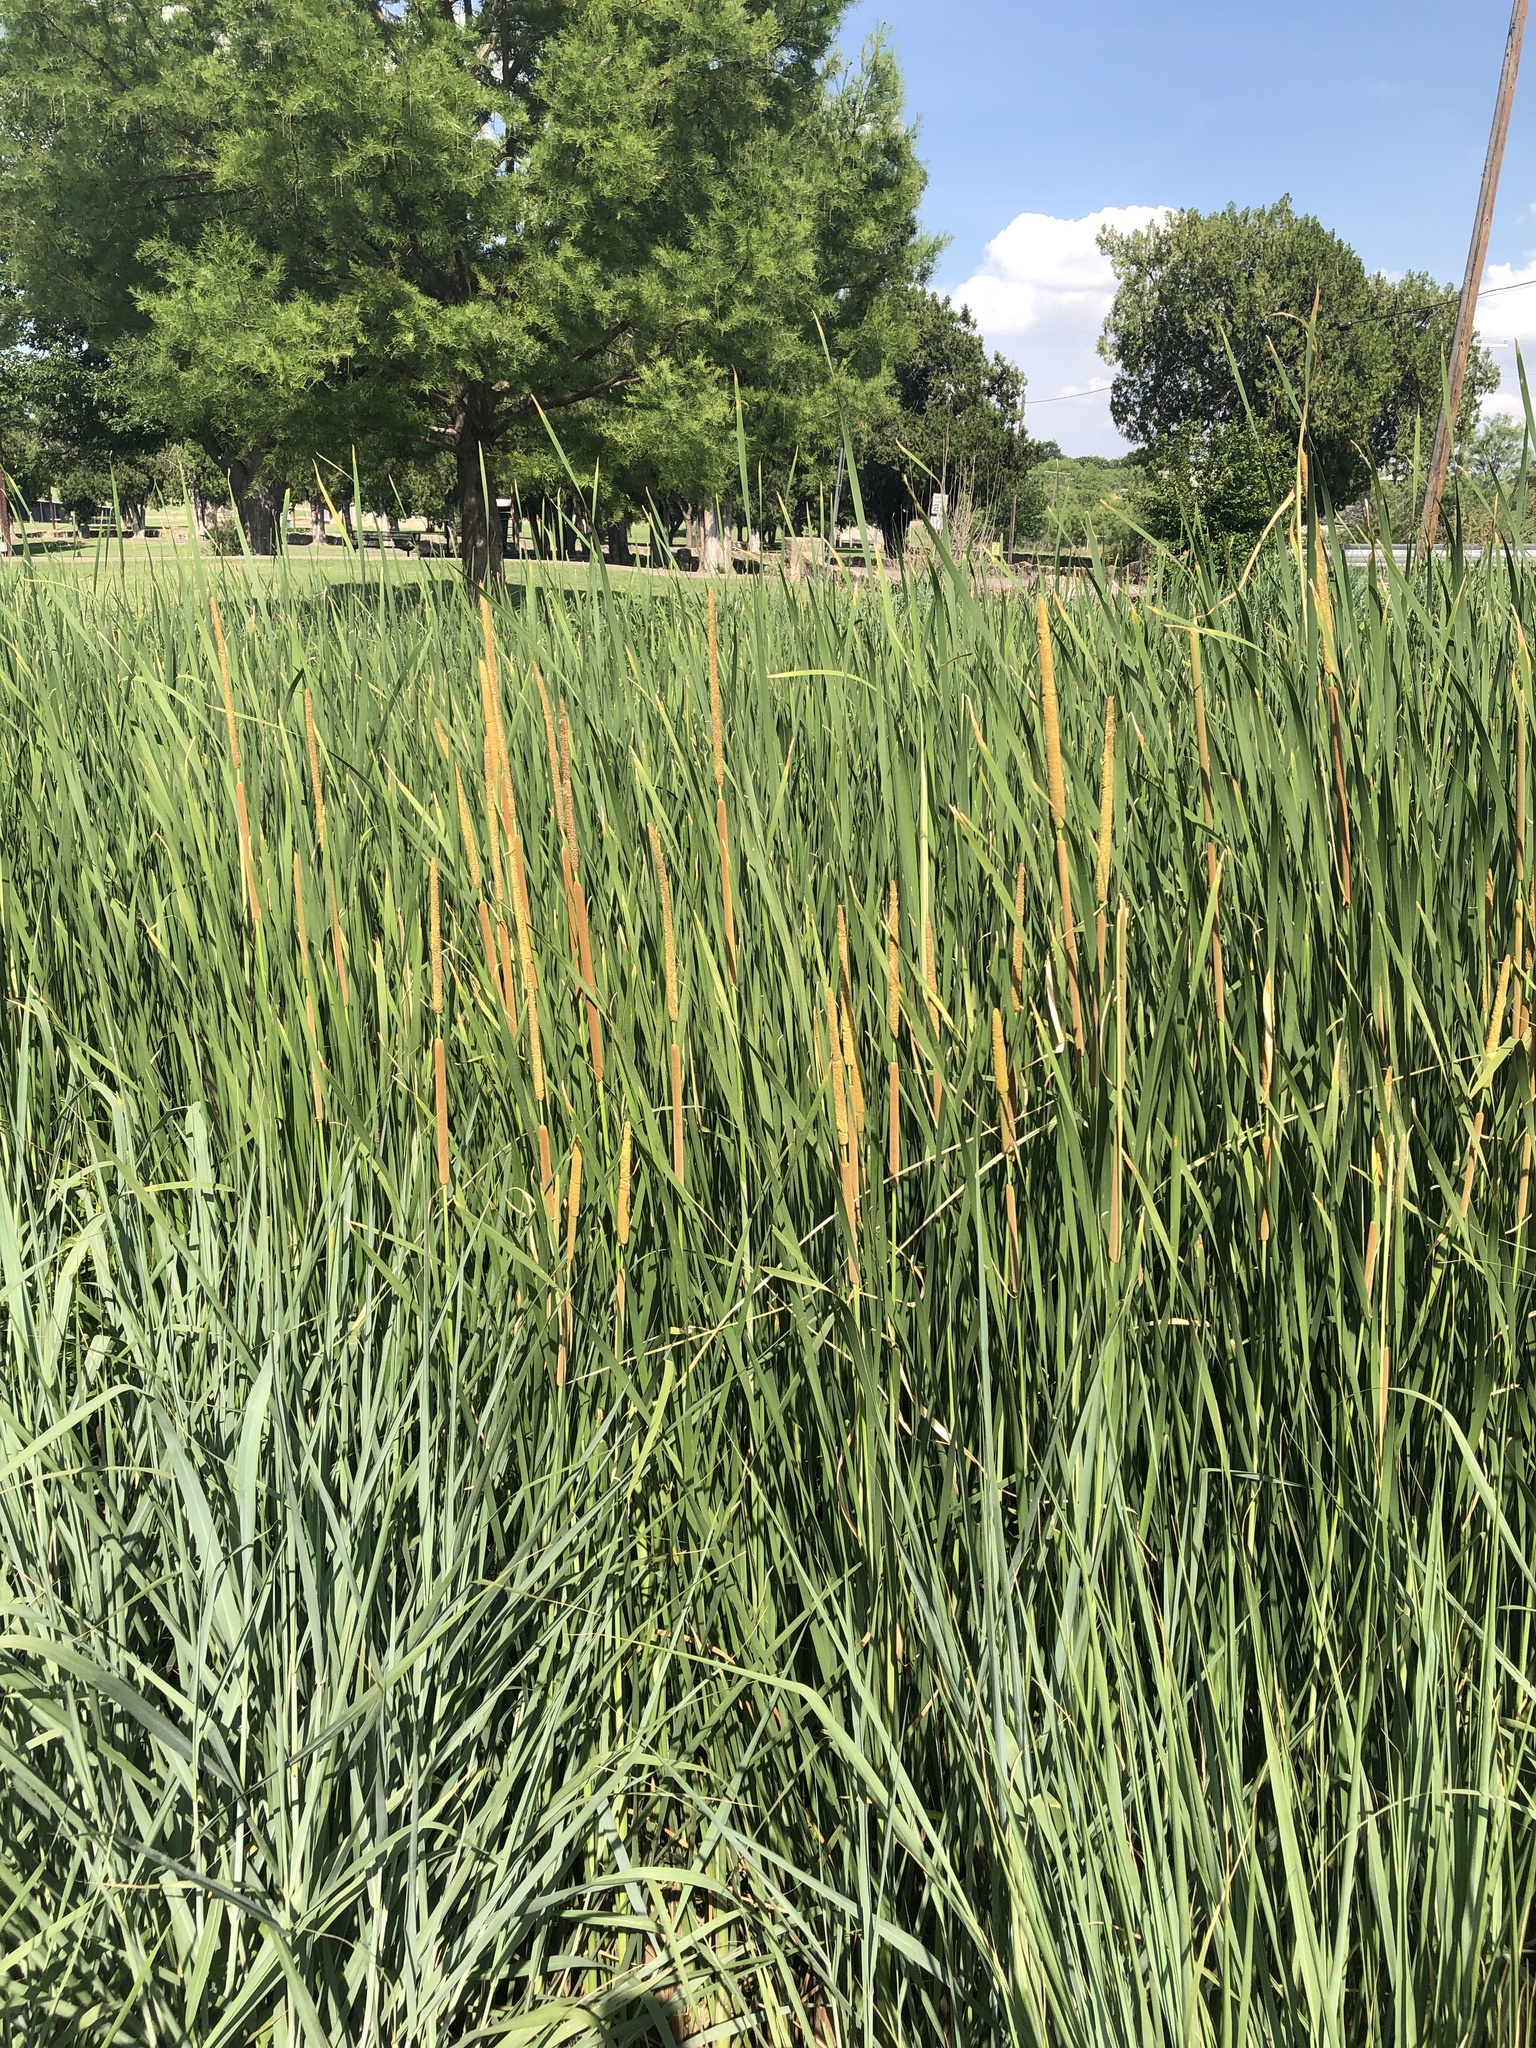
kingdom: Plantae
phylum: Tracheophyta
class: Liliopsida
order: Poales
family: Typhaceae
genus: Typha
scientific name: Typha domingensis
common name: Southern cattail
